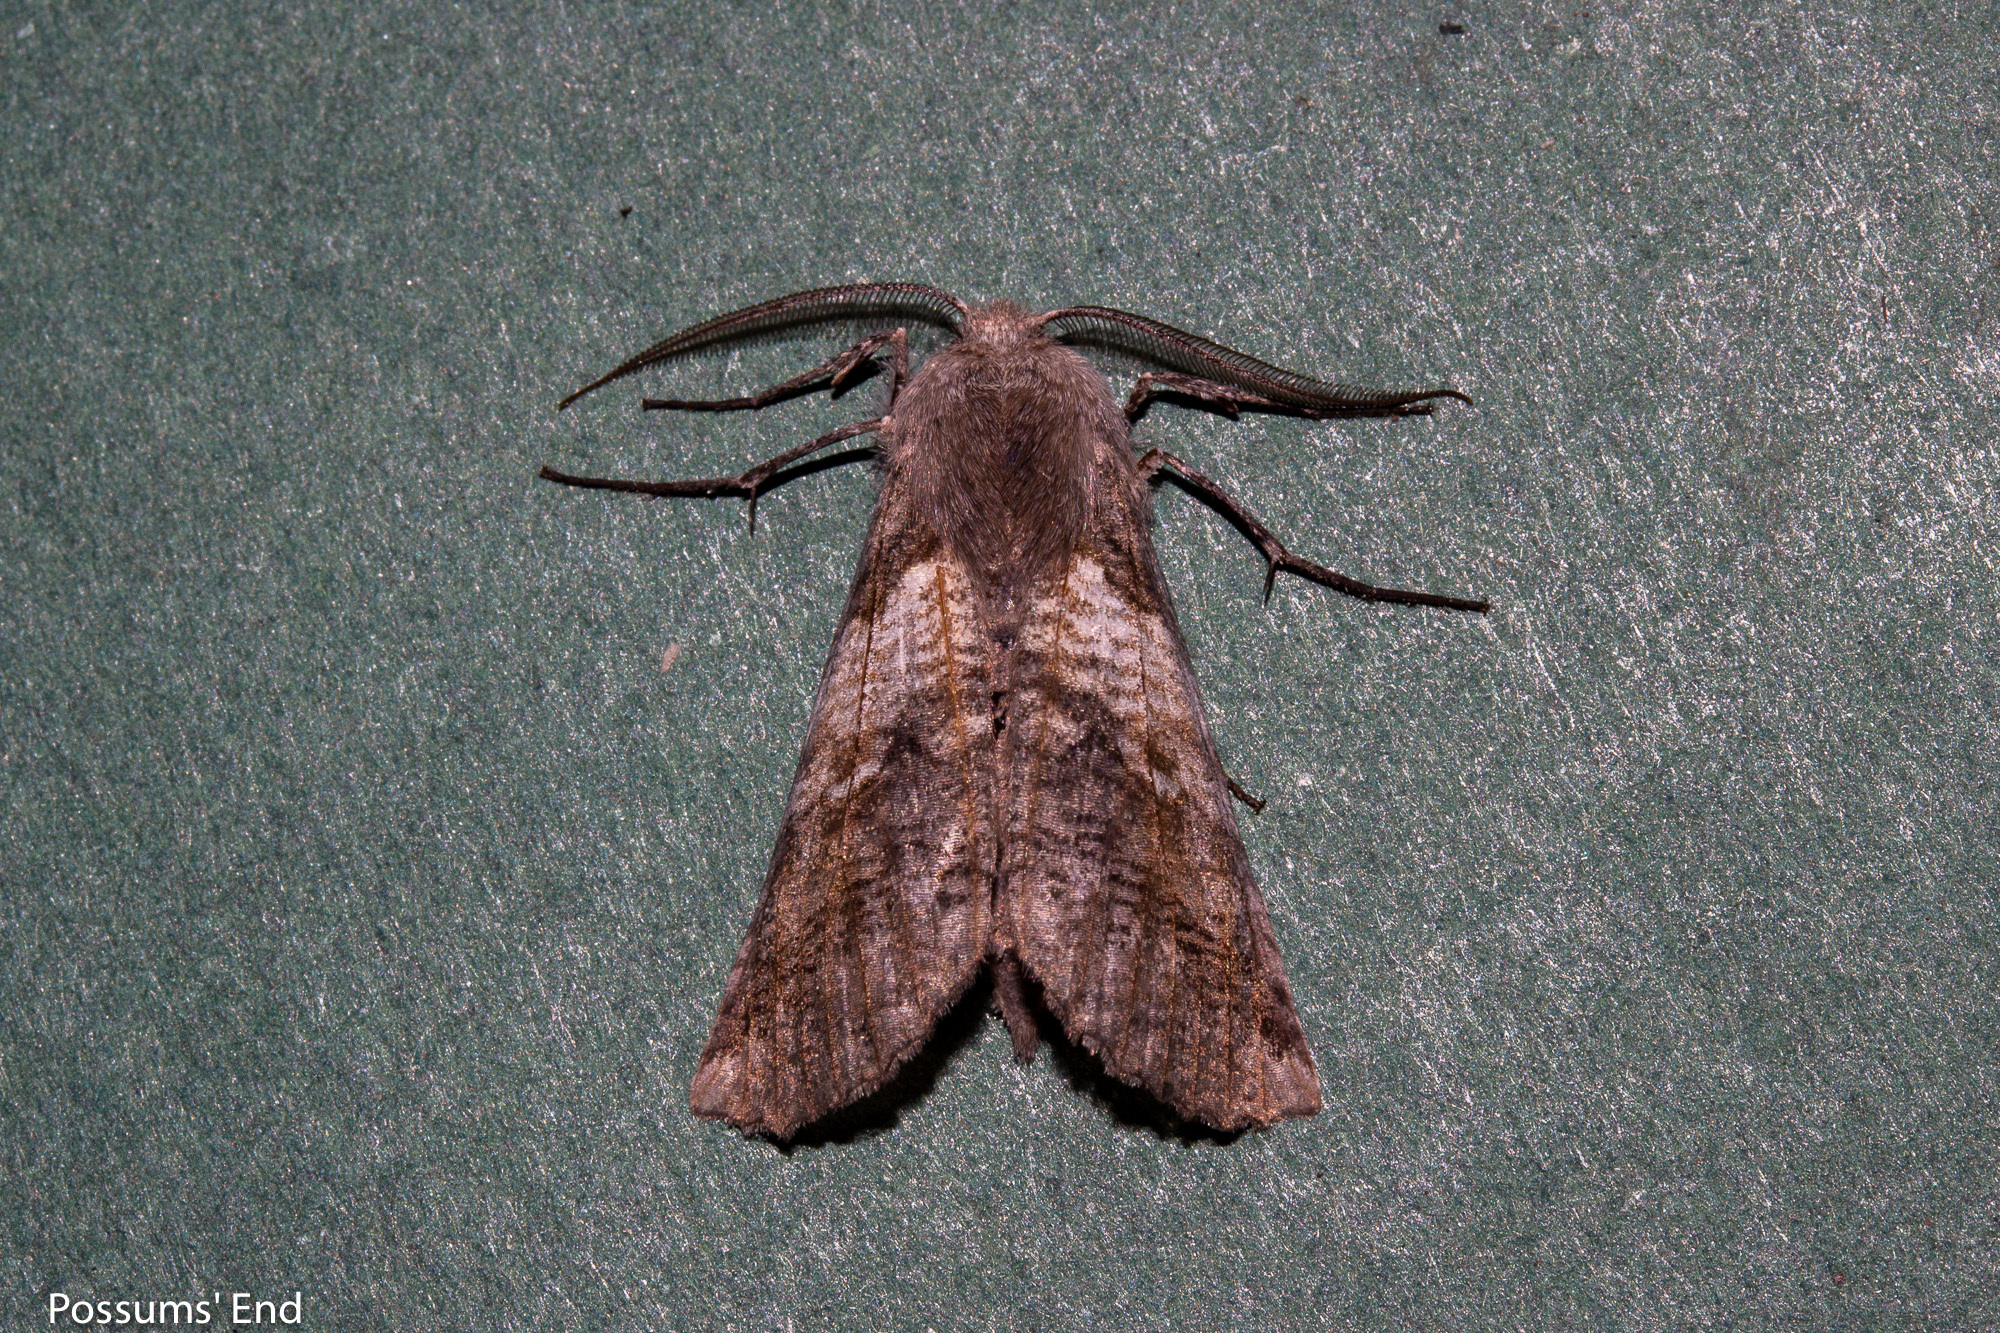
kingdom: Animalia
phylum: Arthropoda
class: Insecta
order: Lepidoptera
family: Geometridae
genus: Declana
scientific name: Declana
